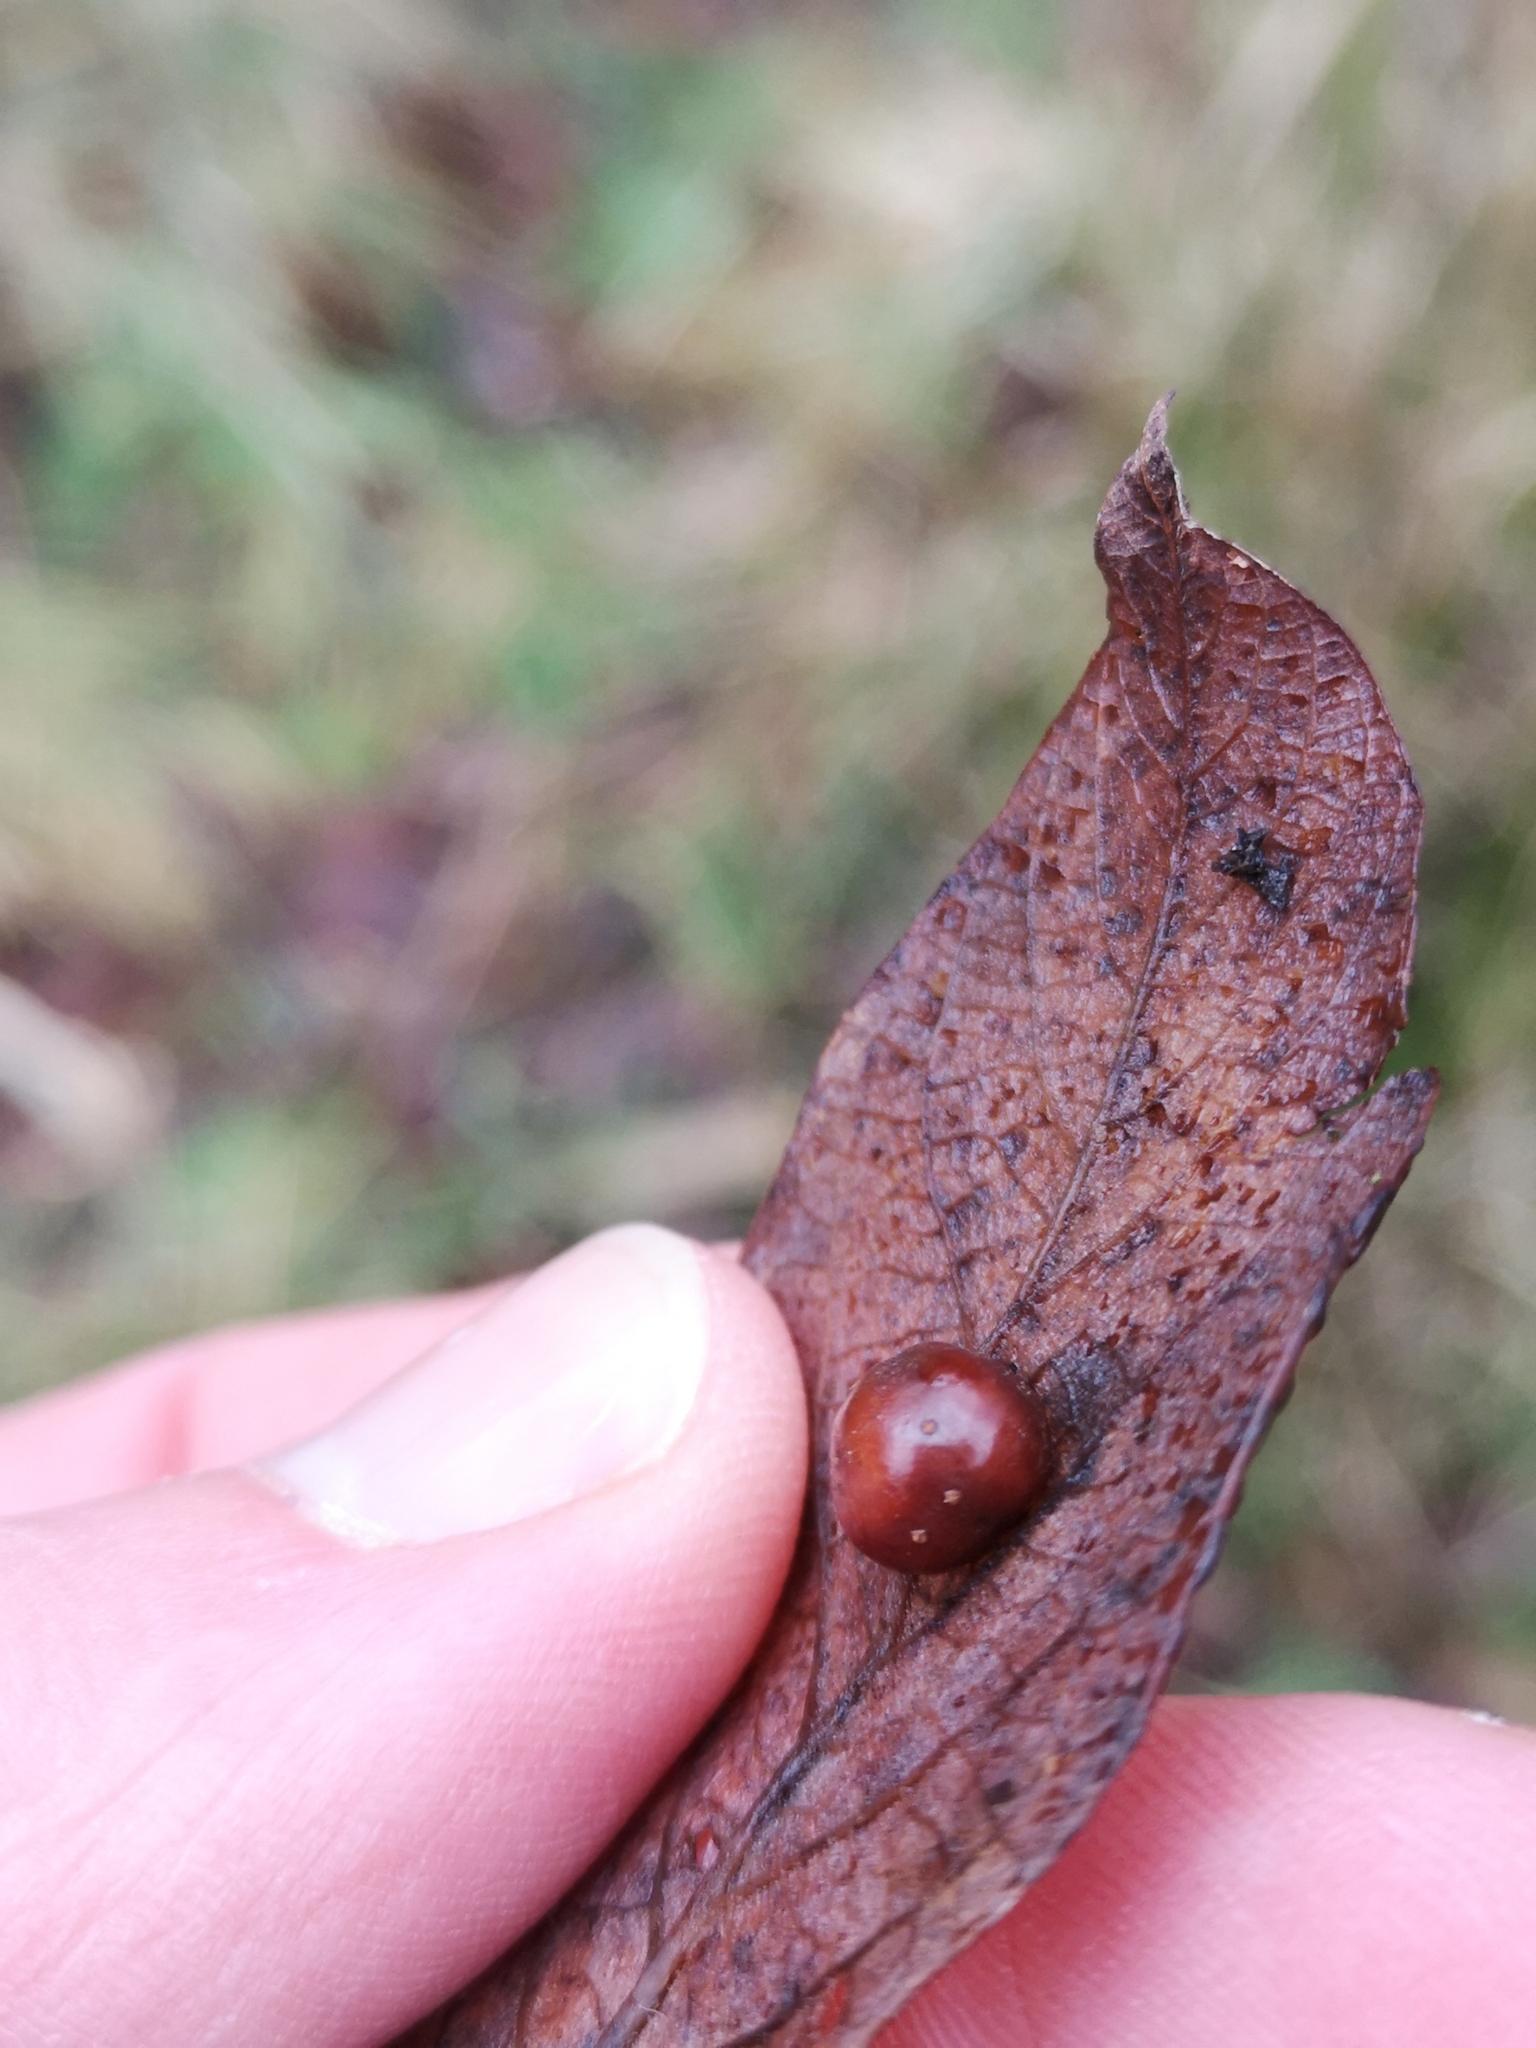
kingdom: Animalia
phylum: Arthropoda
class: Insecta
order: Hymenoptera
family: Tenthredinidae
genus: Pontania
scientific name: Pontania pedunculi
